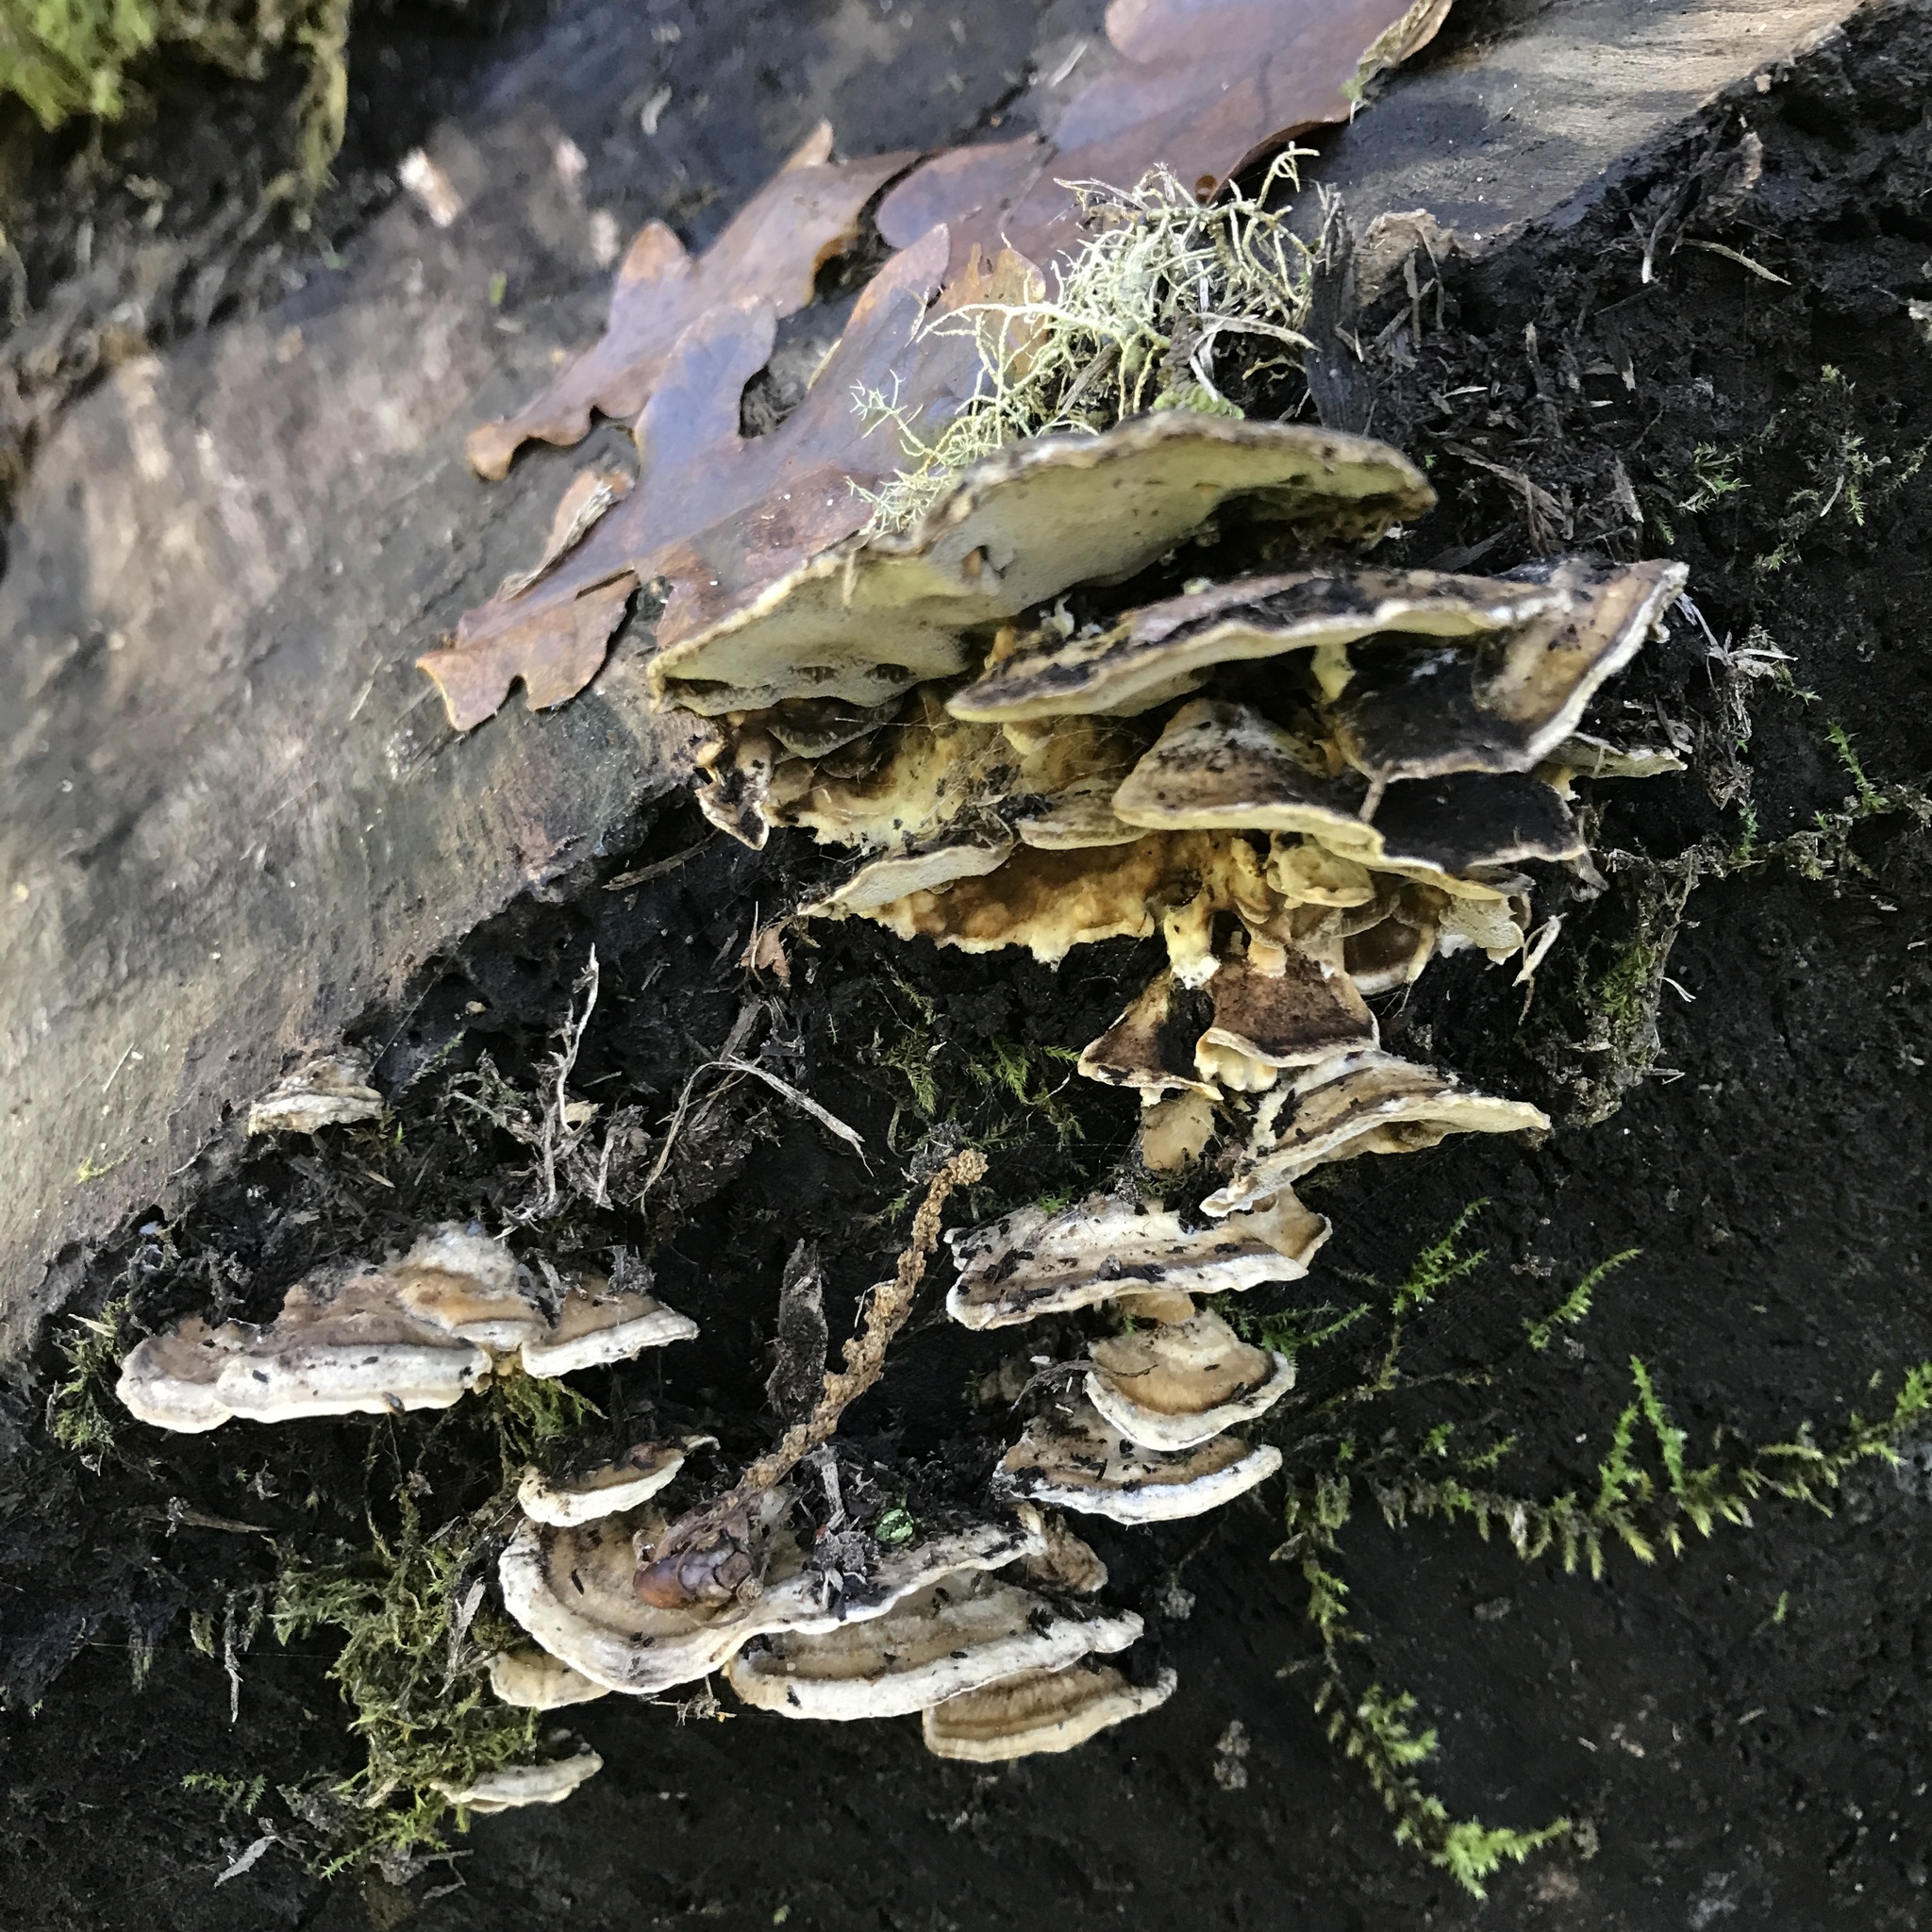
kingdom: Fungi
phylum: Basidiomycota
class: Agaricomycetes
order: Polyporales
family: Phanerochaetaceae
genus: Bjerkandera
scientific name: Bjerkandera adusta
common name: Smoky bracket
